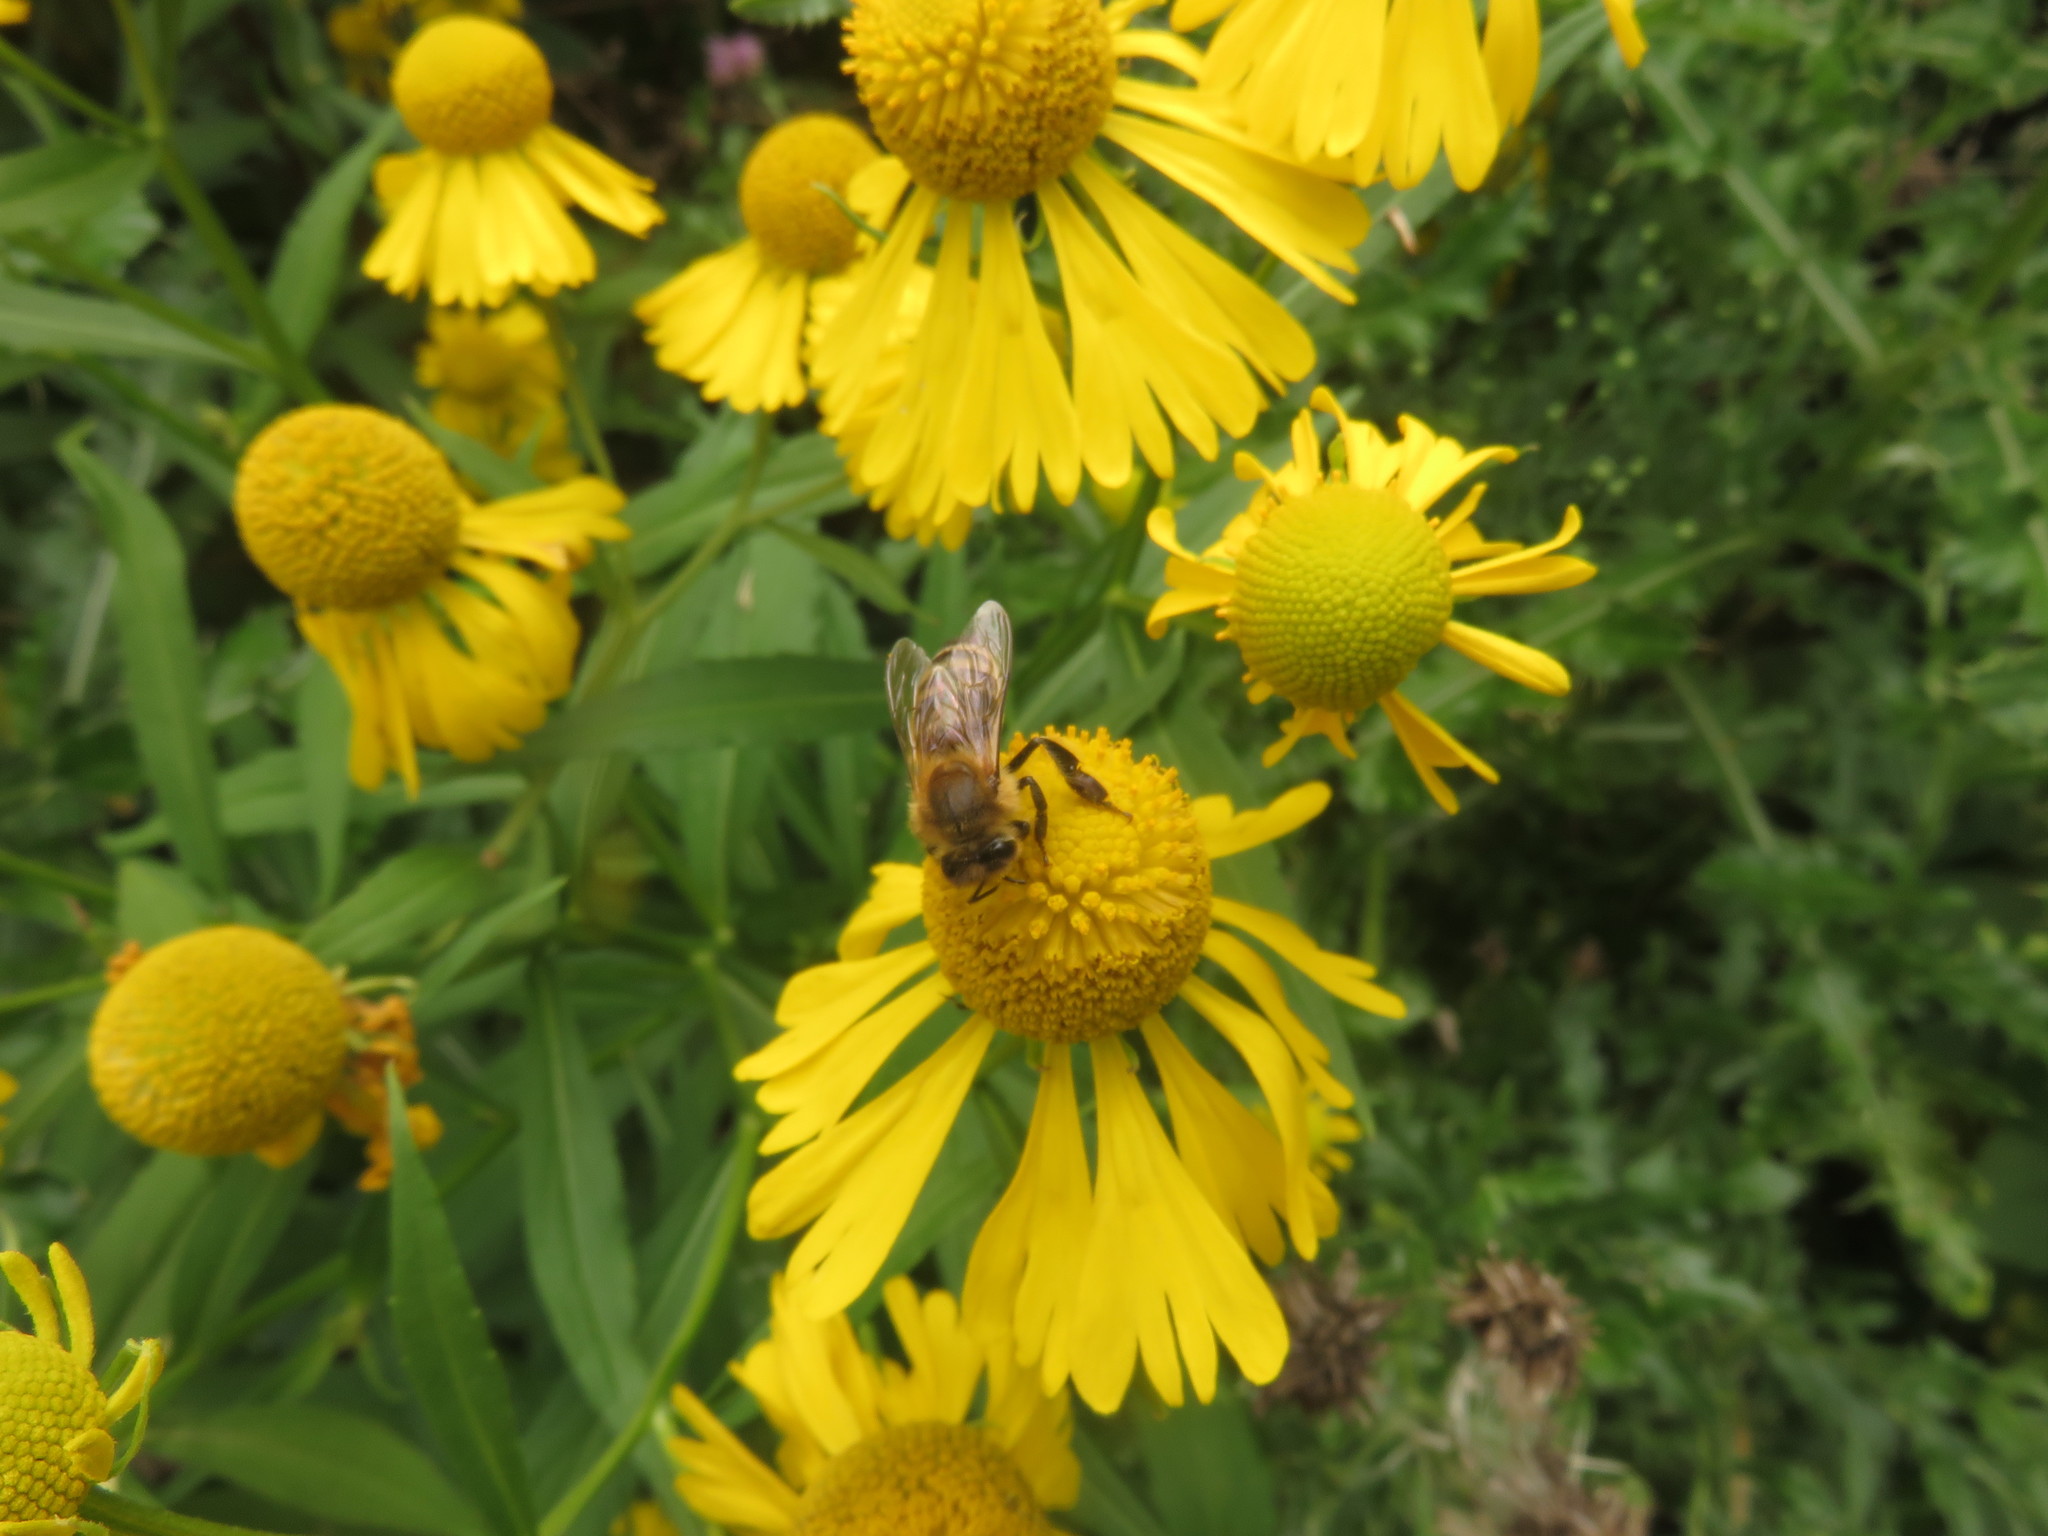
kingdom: Animalia
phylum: Arthropoda
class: Insecta
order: Hymenoptera
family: Apidae
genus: Apis
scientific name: Apis mellifera
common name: Honey bee
